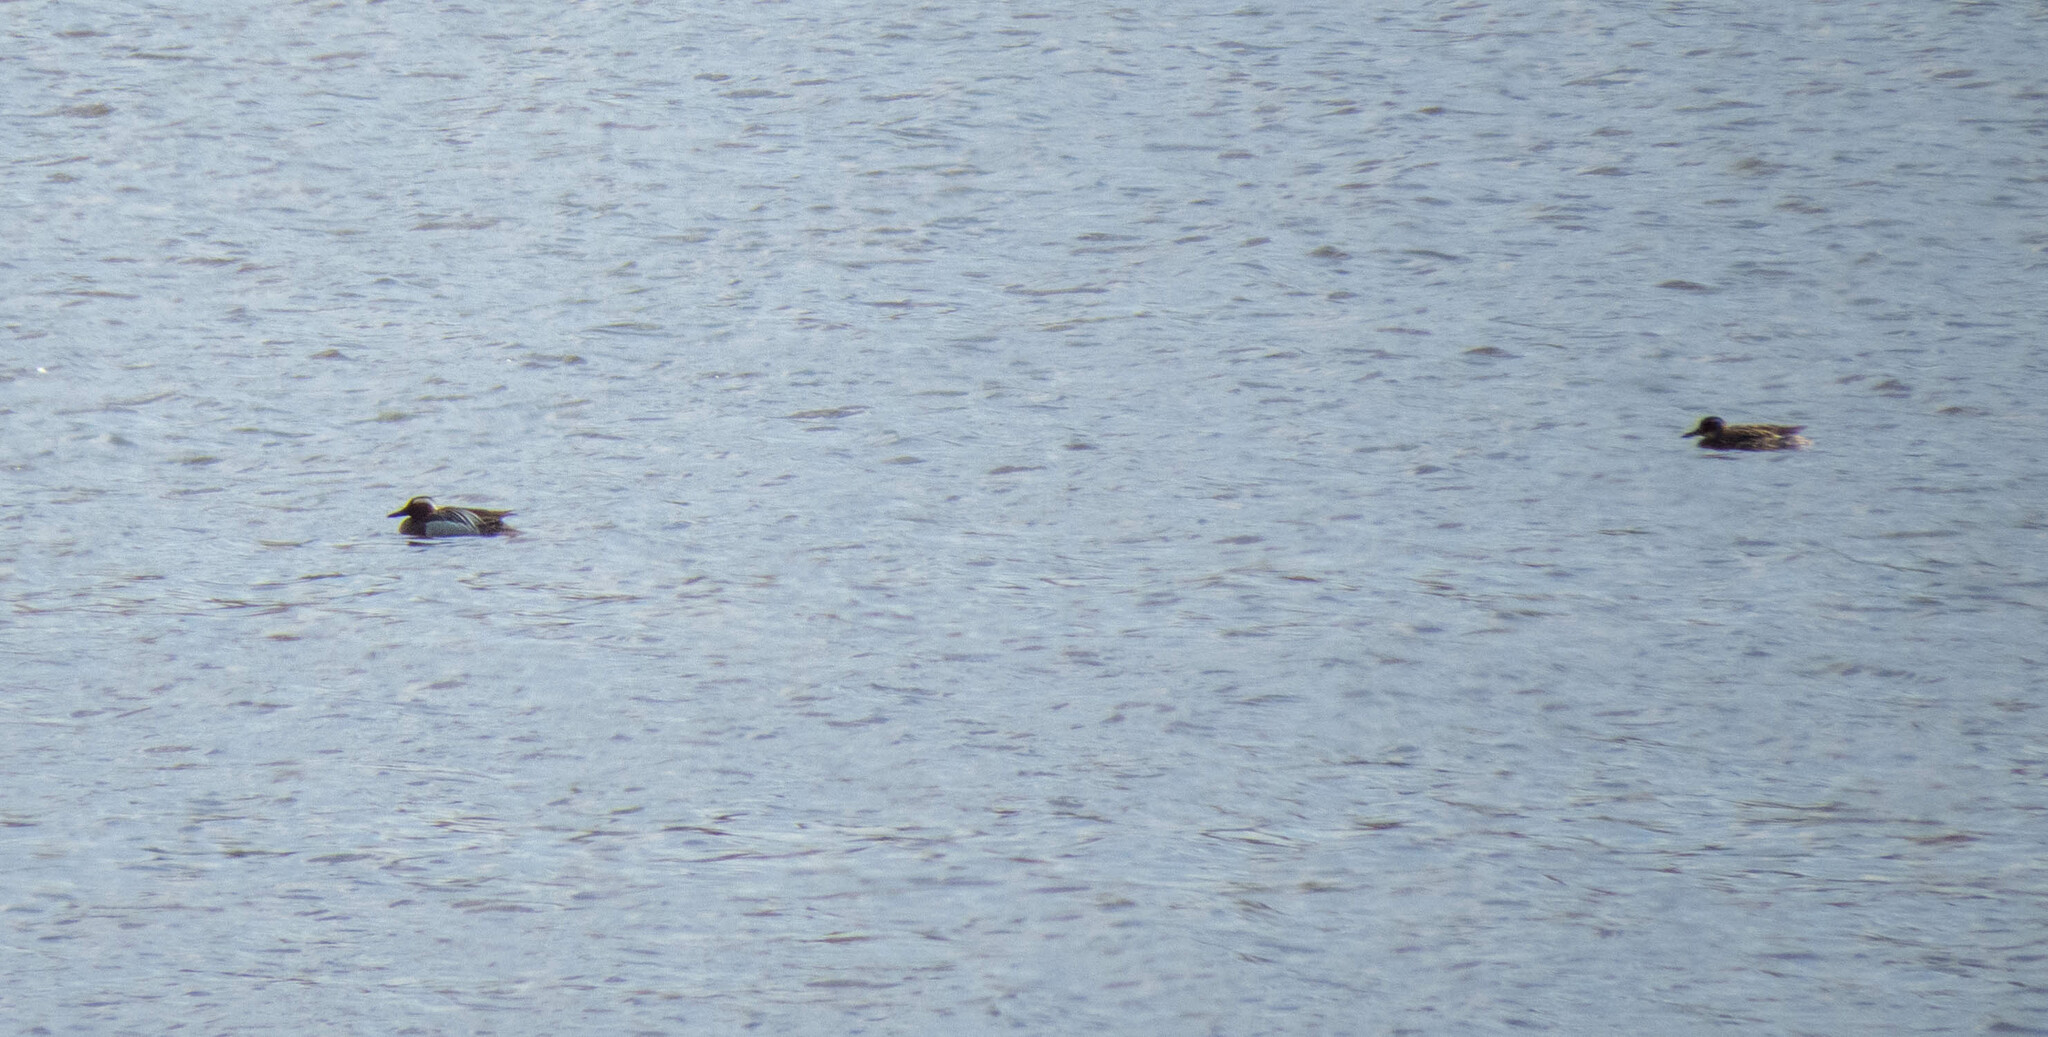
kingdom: Animalia
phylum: Chordata
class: Aves
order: Anseriformes
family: Anatidae
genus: Spatula
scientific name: Spatula querquedula
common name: Garganey
